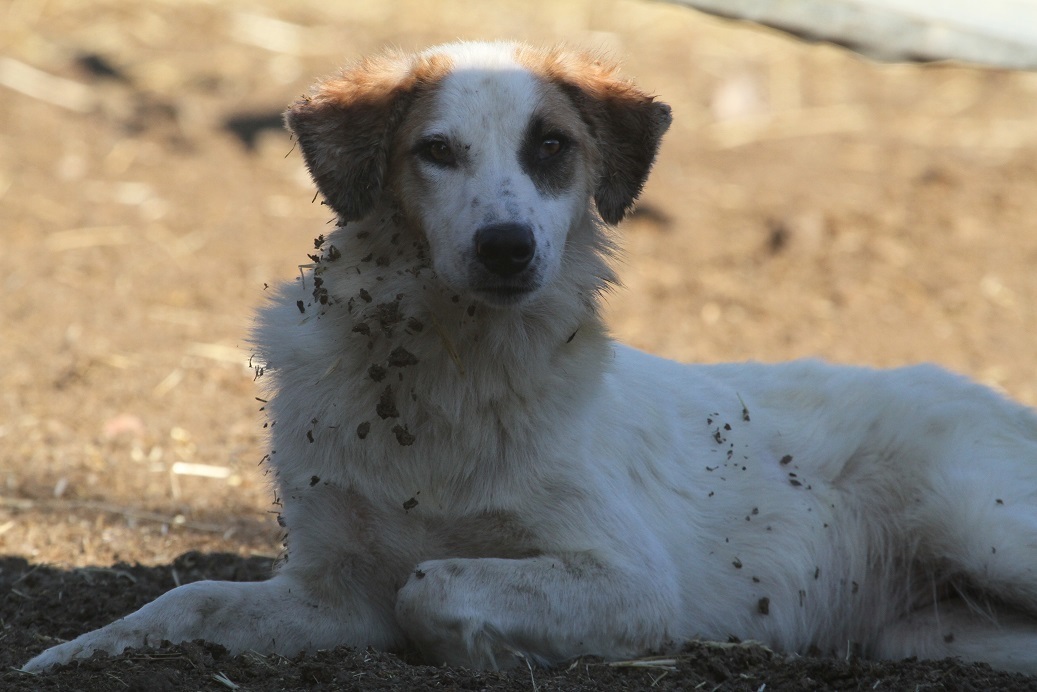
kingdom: Animalia
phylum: Chordata
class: Mammalia
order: Carnivora
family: Canidae
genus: Canis
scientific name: Canis lupus
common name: Gray wolf
